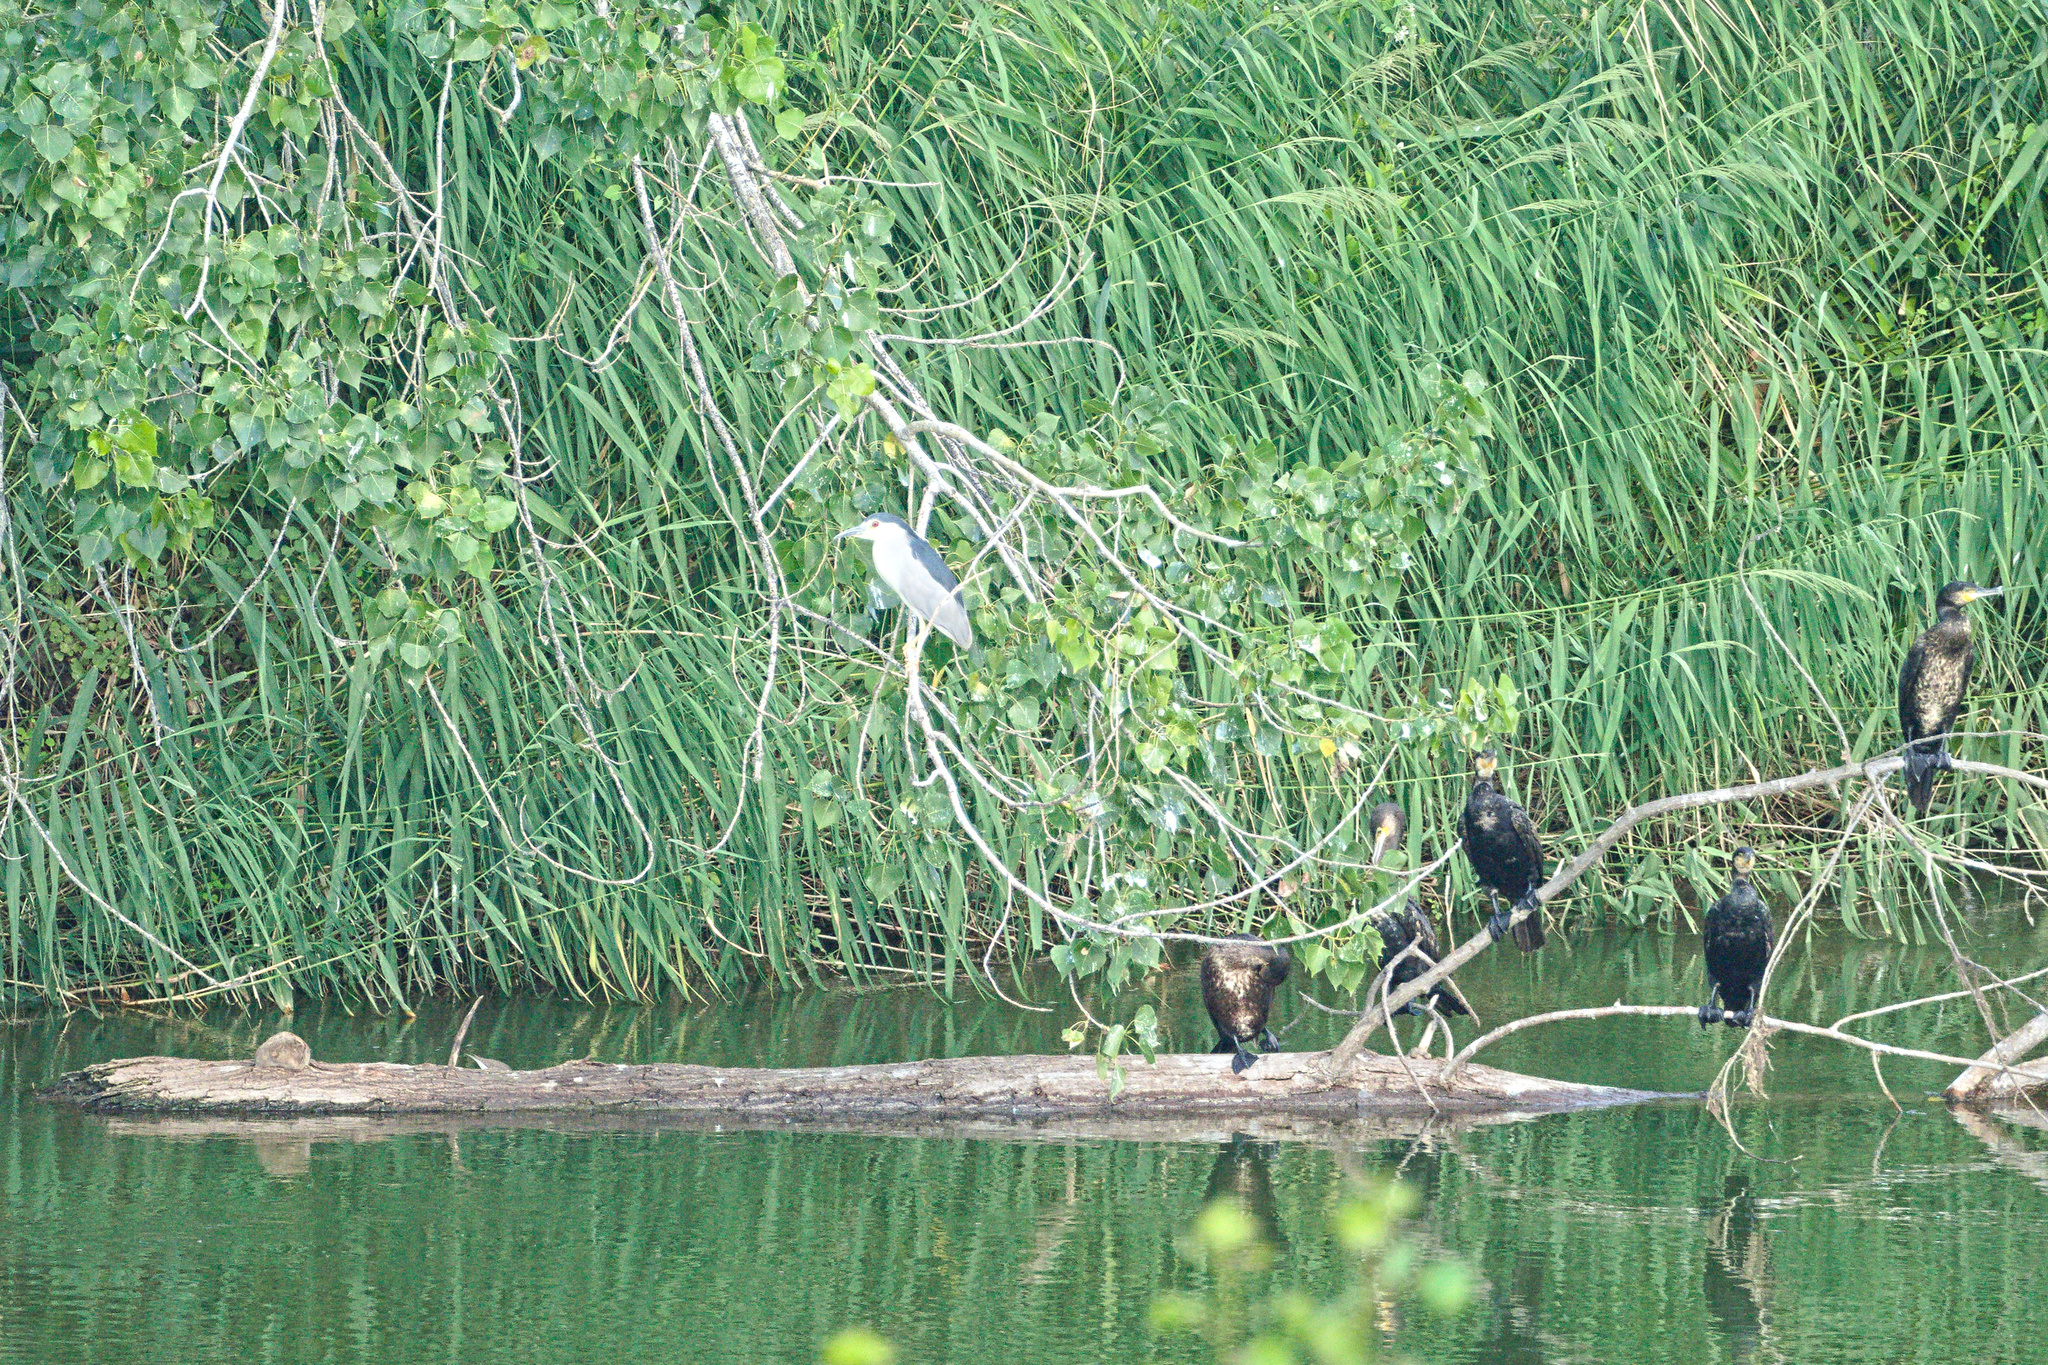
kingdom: Animalia
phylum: Chordata
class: Aves
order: Pelecaniformes
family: Ardeidae
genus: Nycticorax
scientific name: Nycticorax nycticorax
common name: Black-crowned night heron
